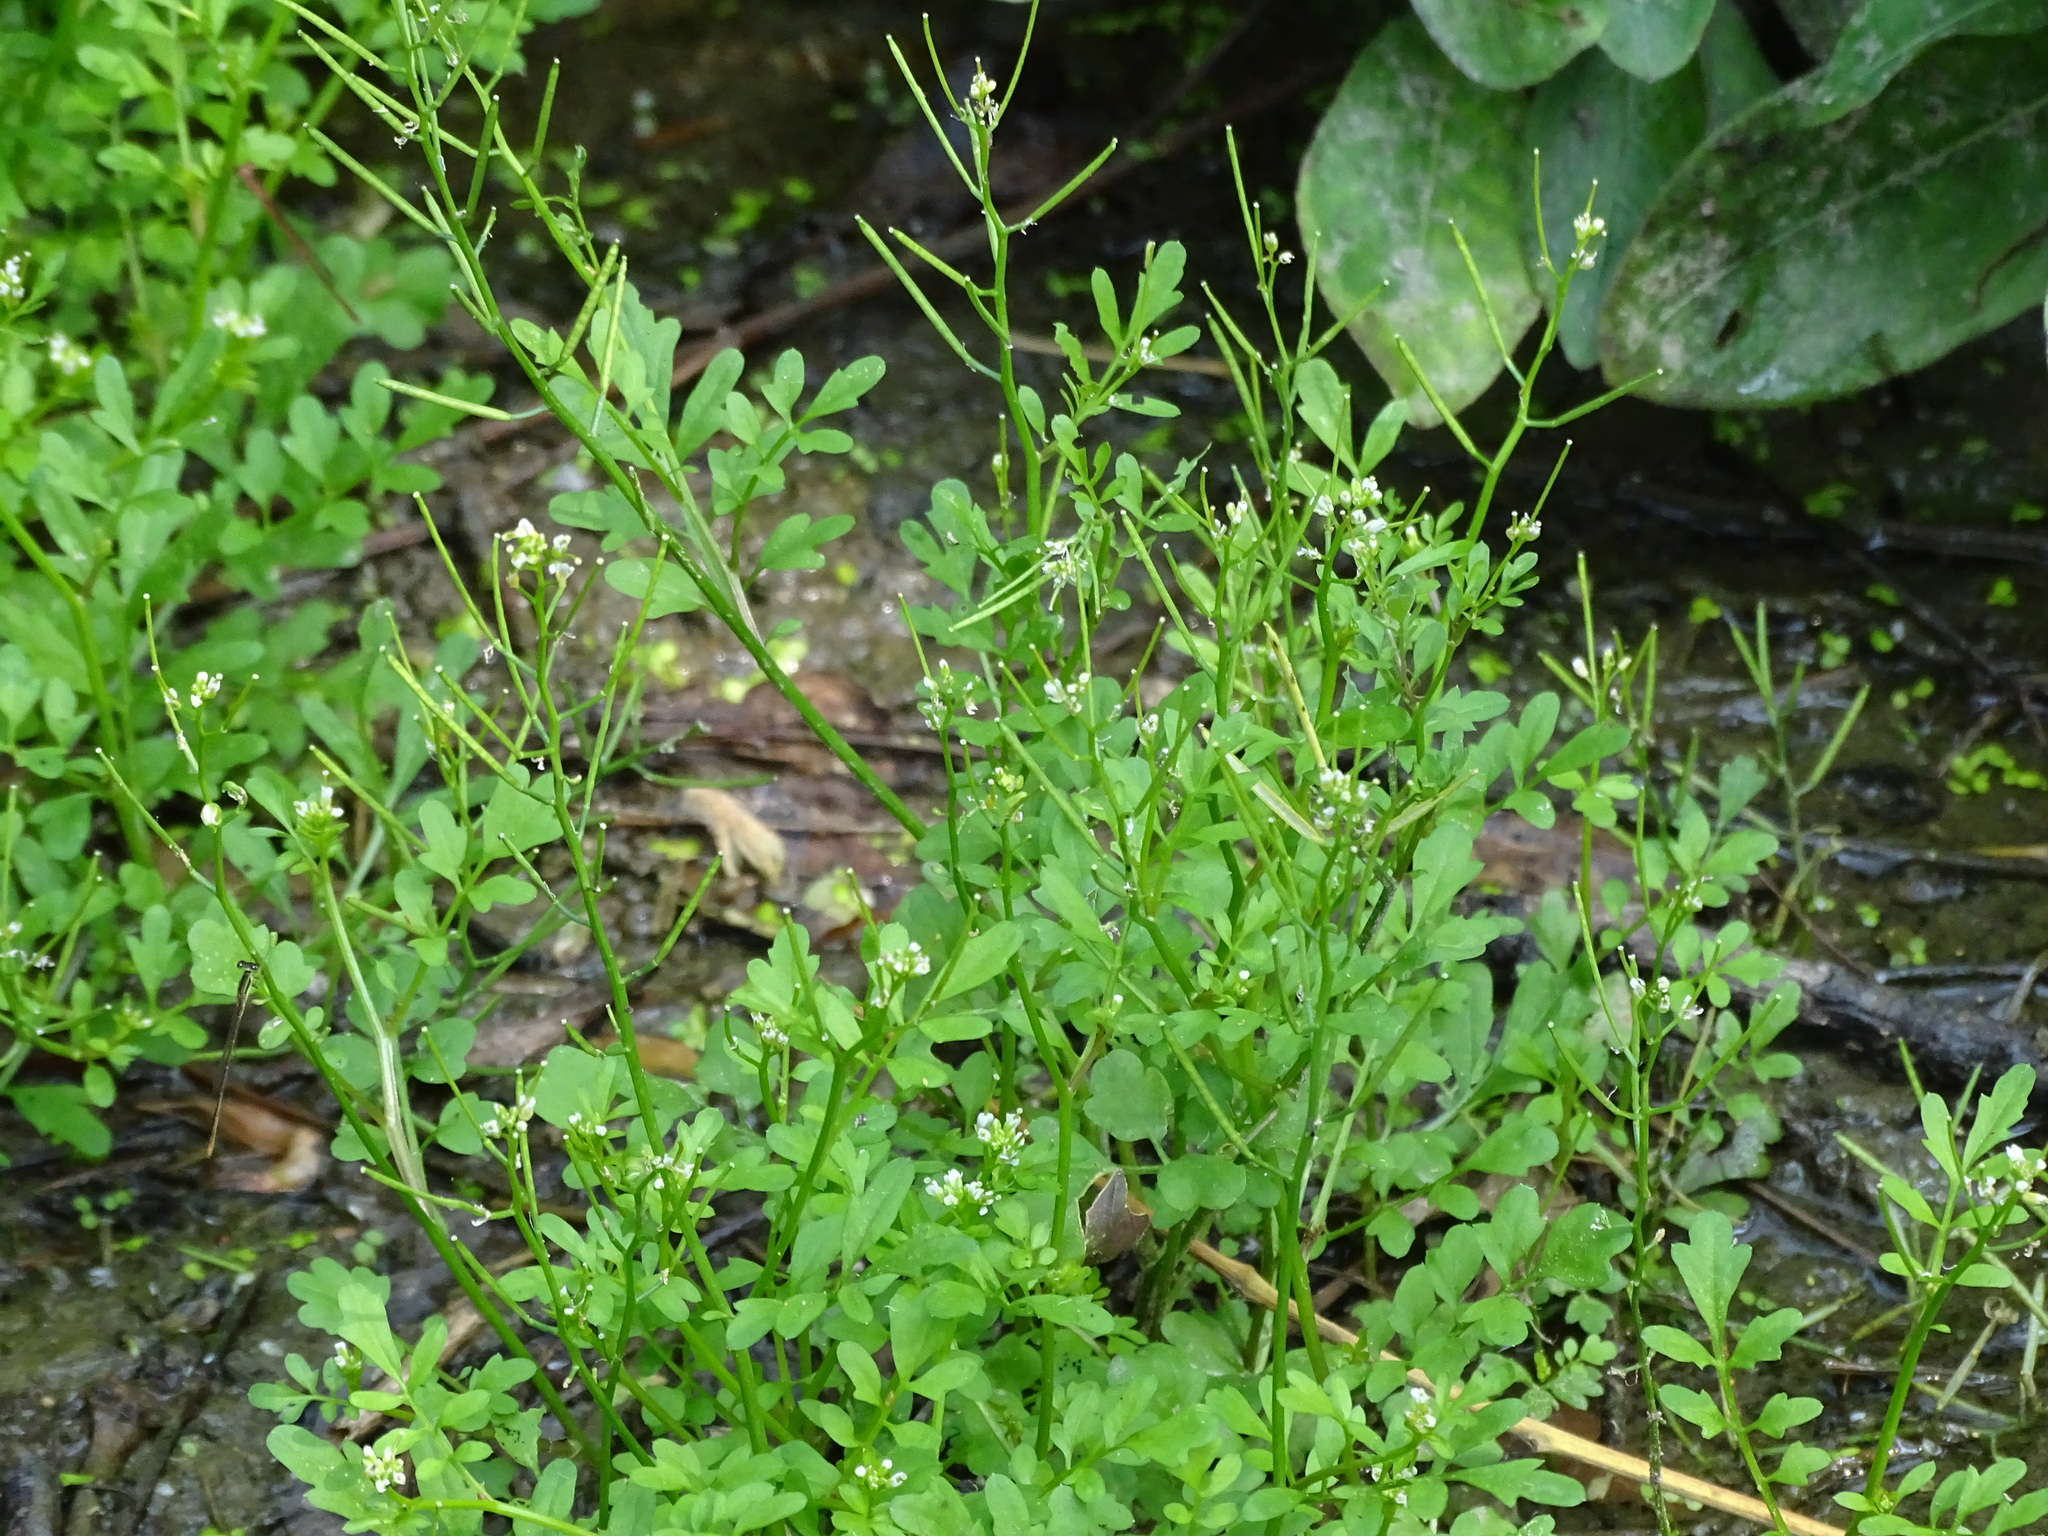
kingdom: Plantae
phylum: Tracheophyta
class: Magnoliopsida
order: Brassicales
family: Brassicaceae
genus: Cardamine
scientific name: Cardamine flexuosa
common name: Woodland bittercress
